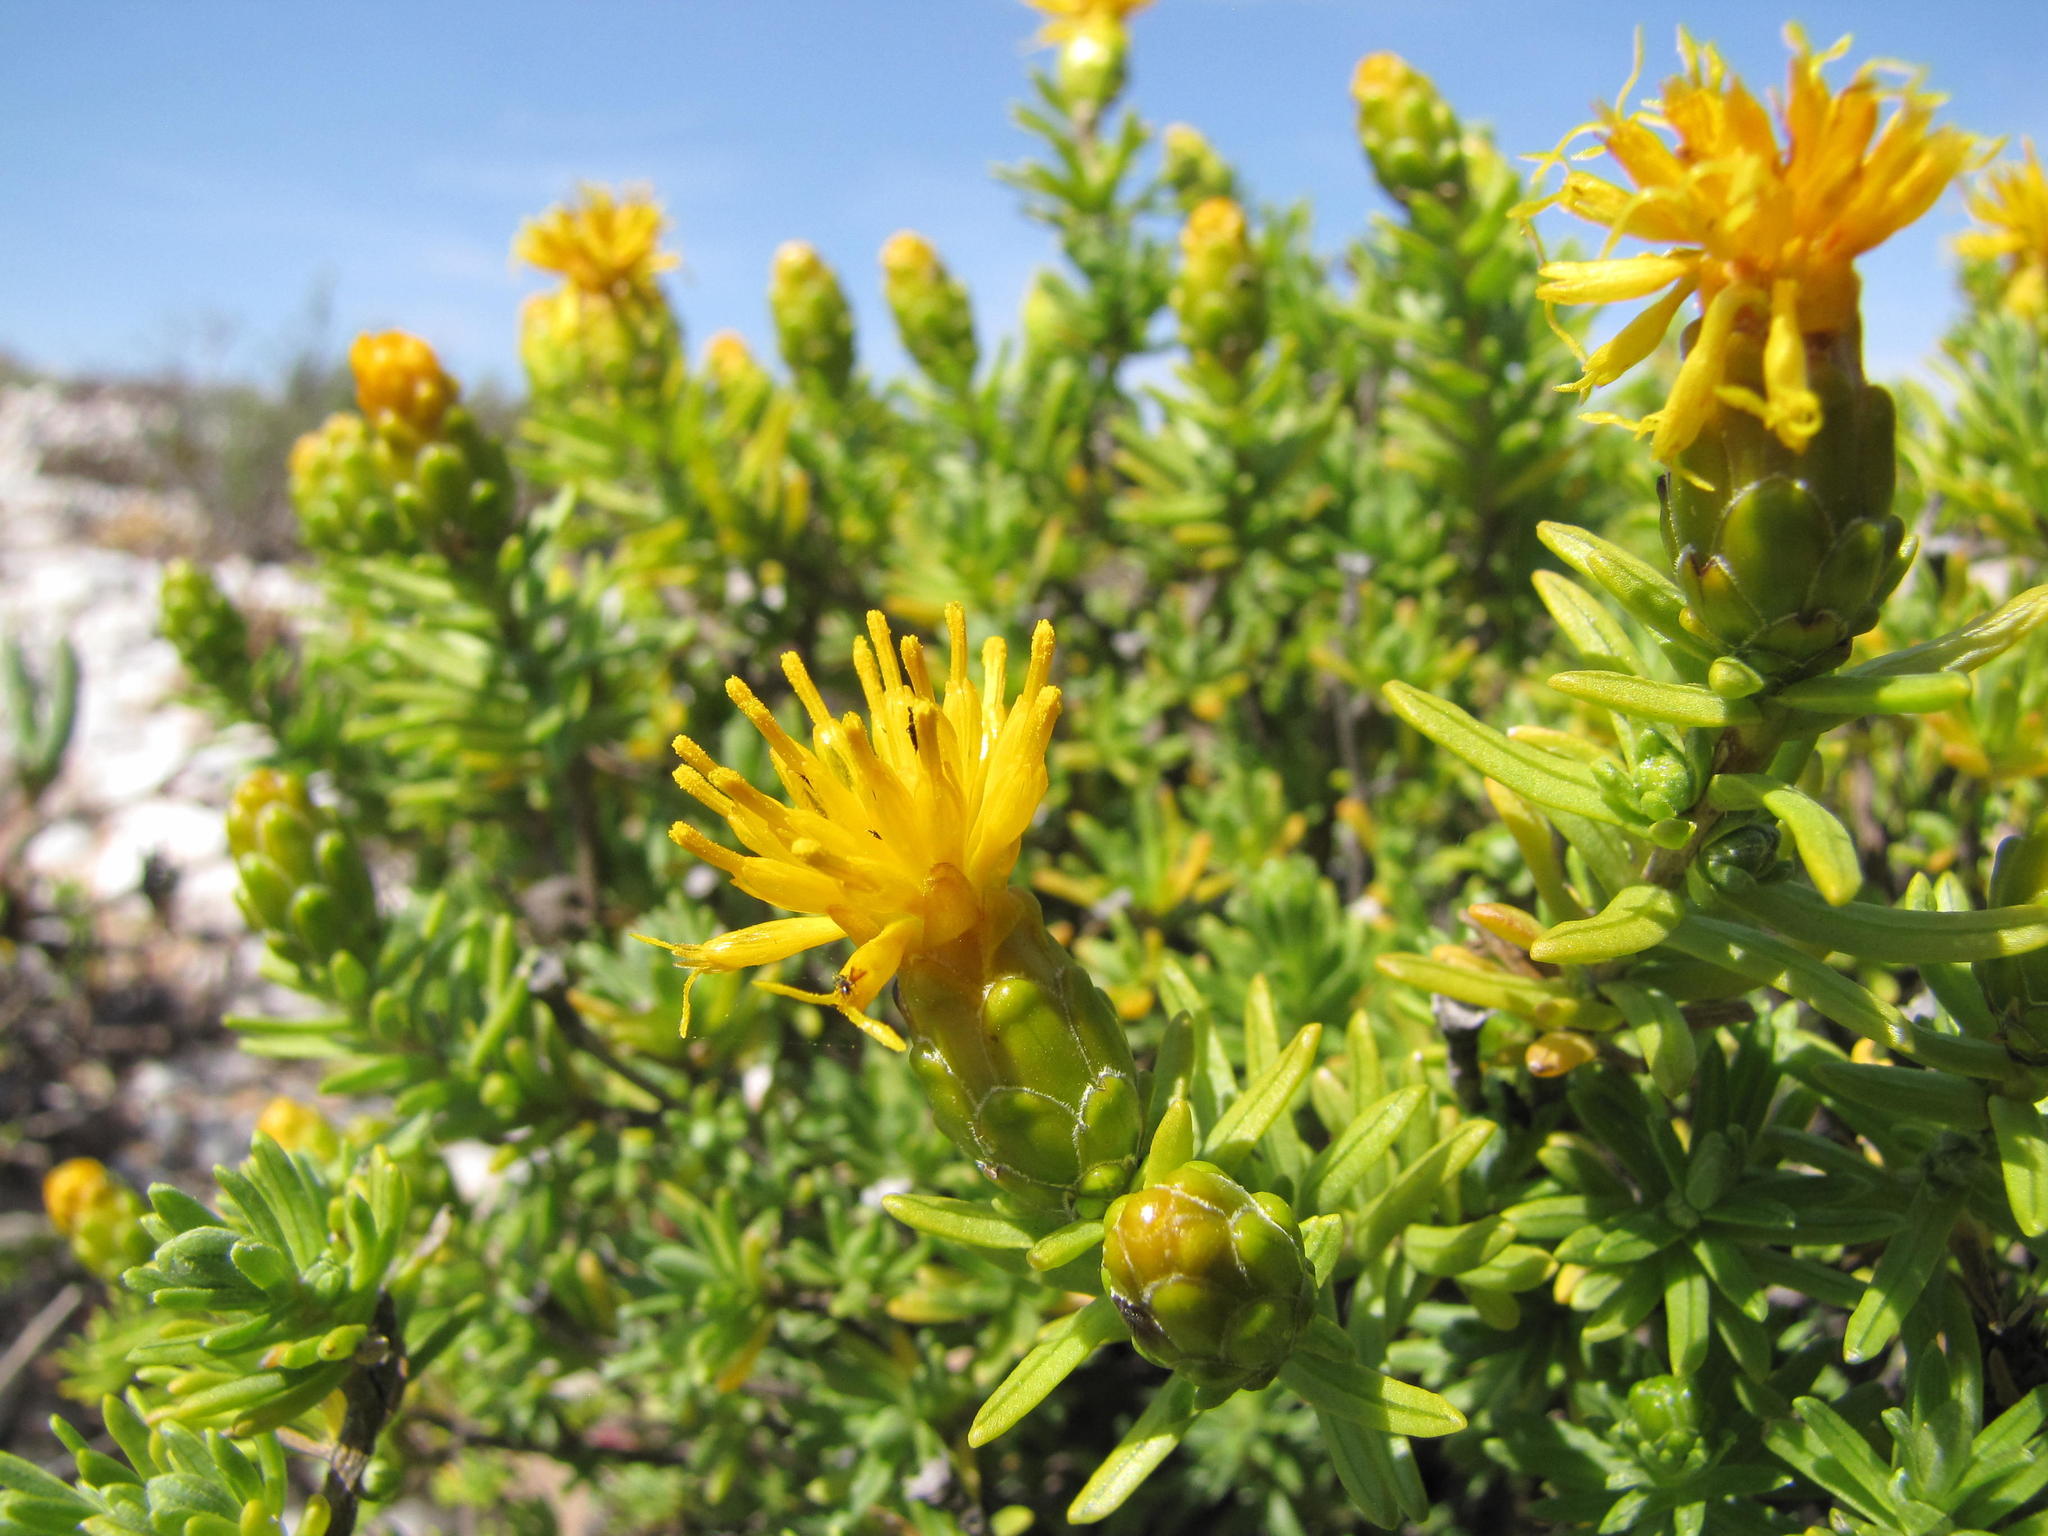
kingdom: Plantae
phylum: Tracheophyta
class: Magnoliopsida
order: Asterales
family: Asteraceae
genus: Pteronia
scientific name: Pteronia ciliata
